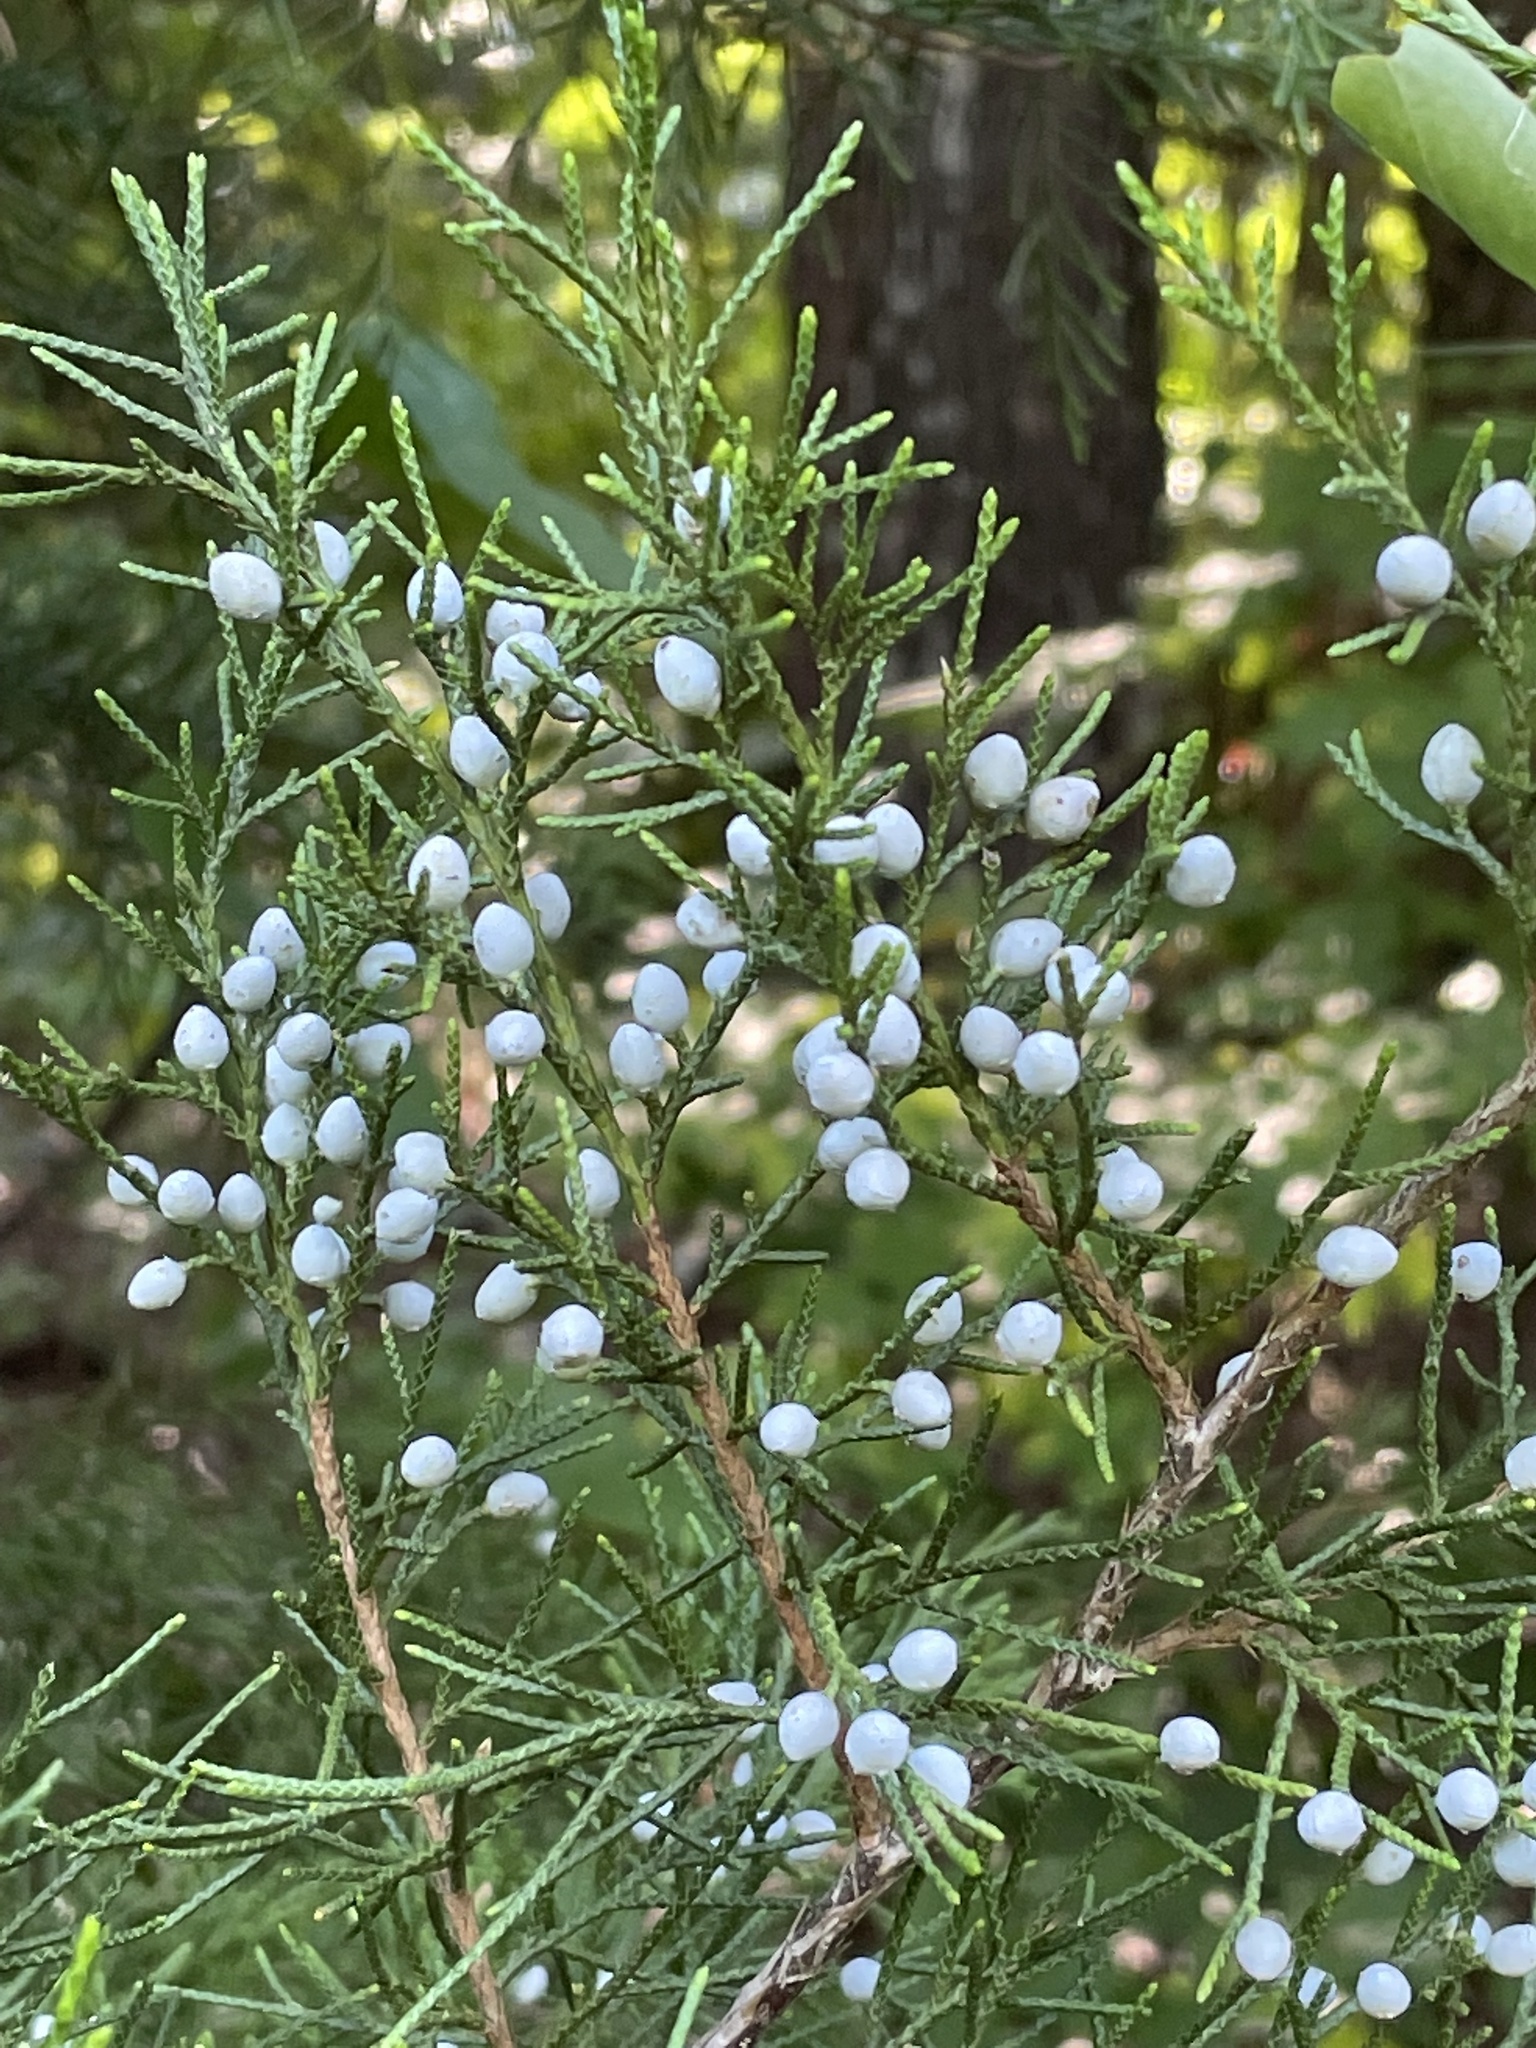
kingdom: Plantae
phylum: Tracheophyta
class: Pinopsida
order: Pinales
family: Cupressaceae
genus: Juniperus
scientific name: Juniperus virginiana
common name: Red juniper
